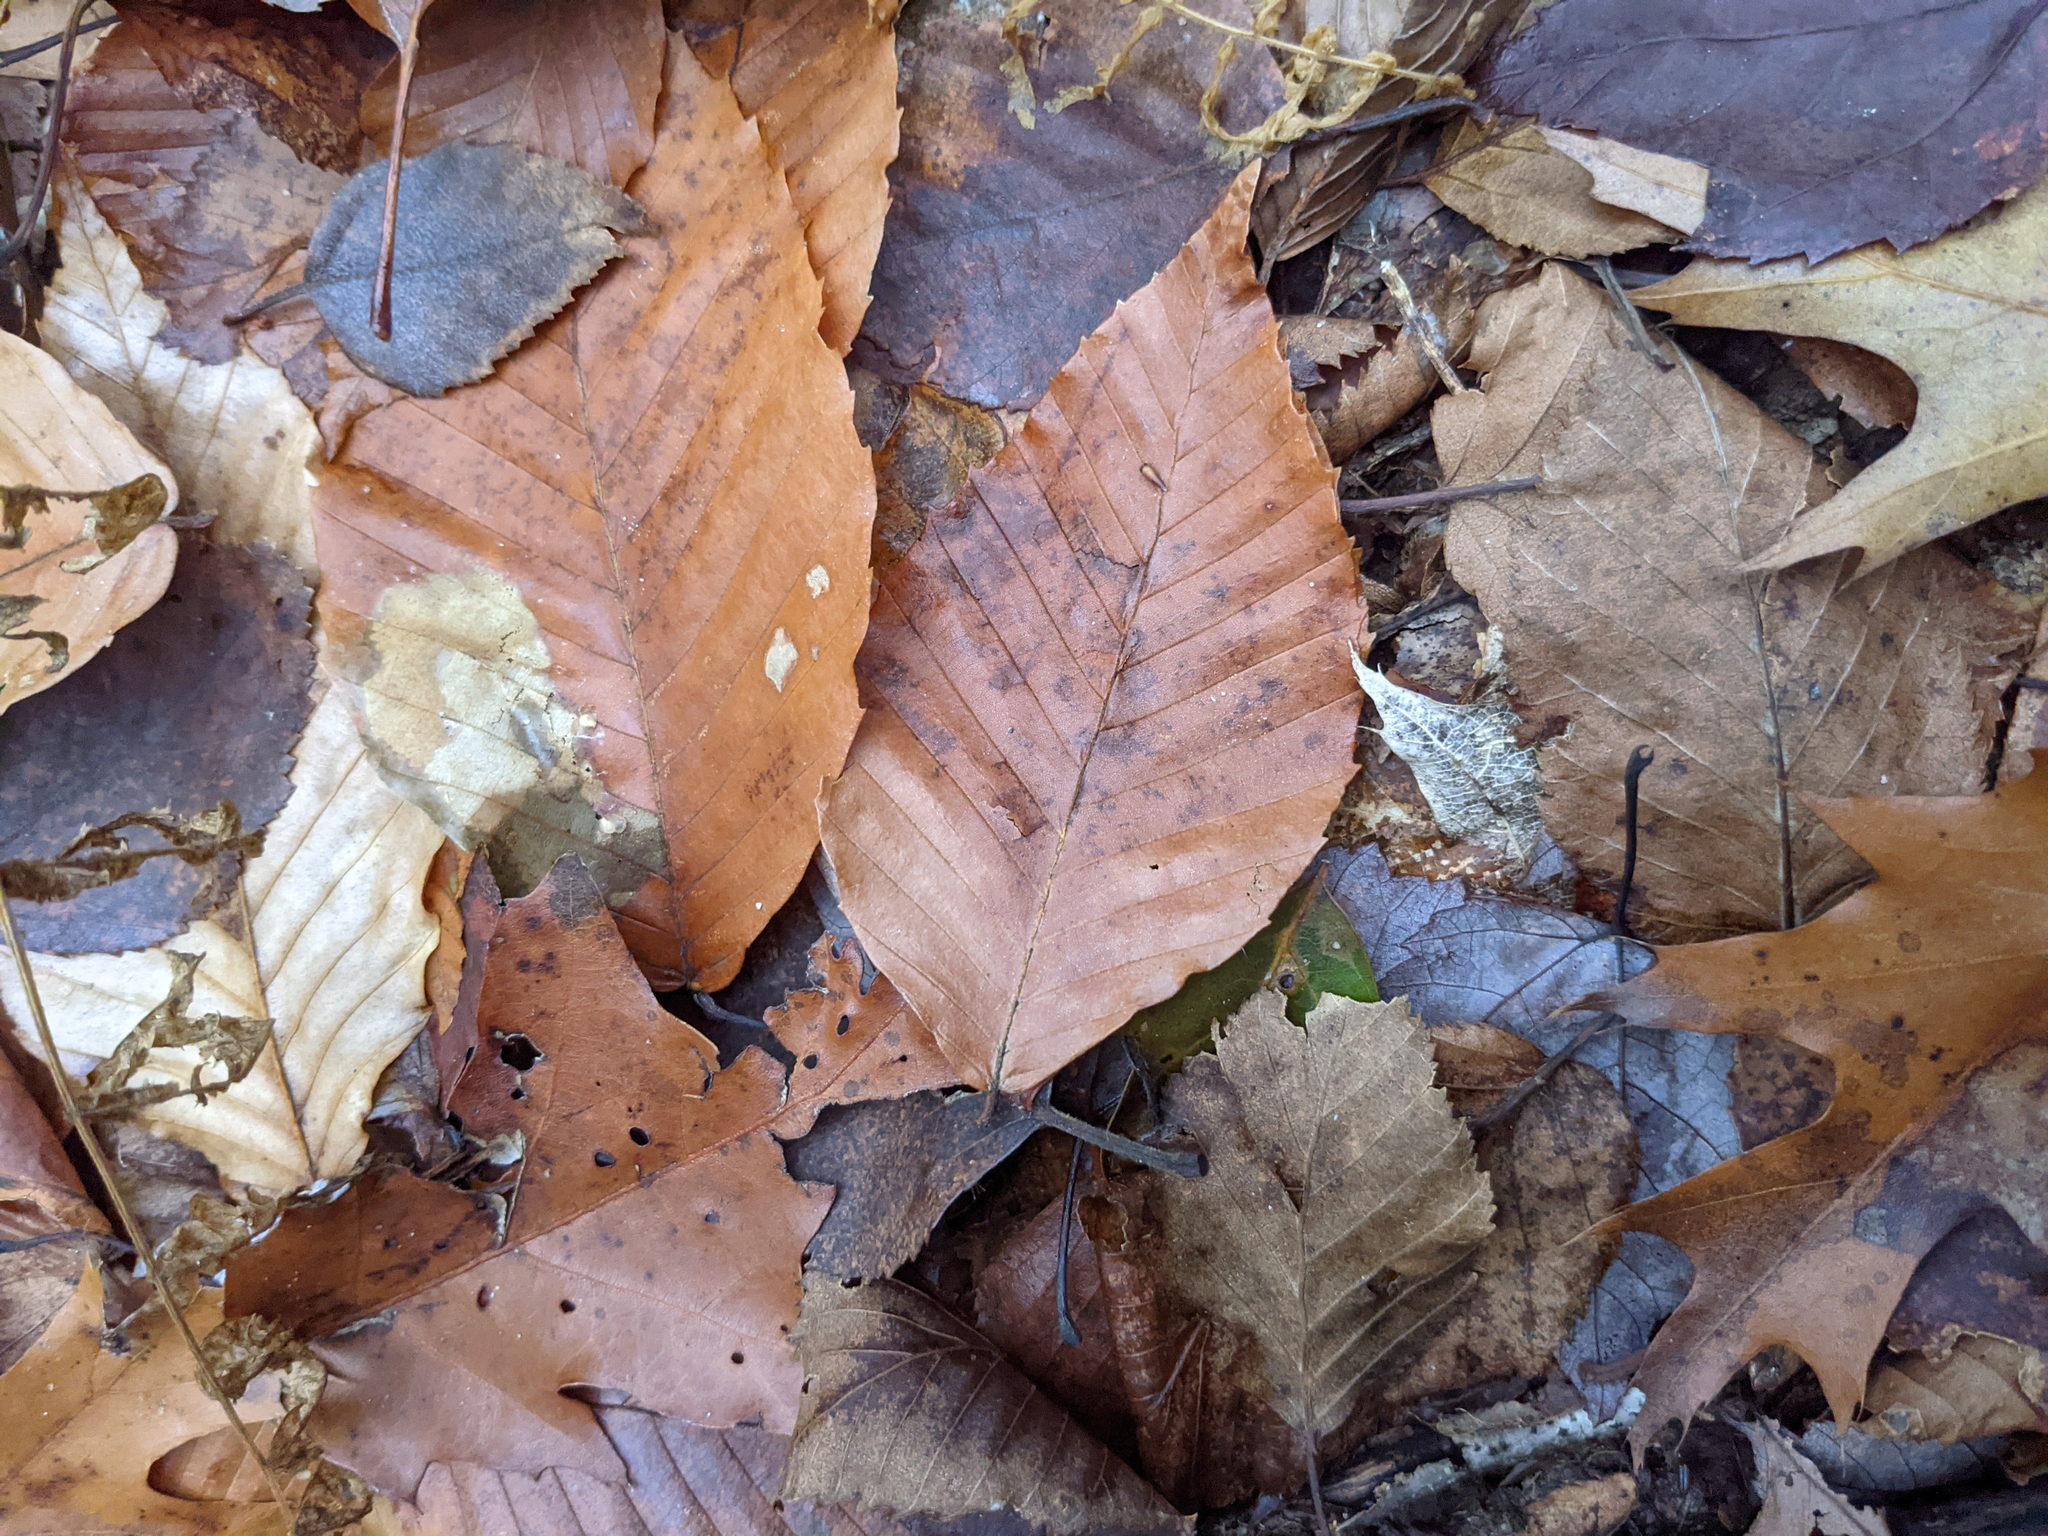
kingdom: Plantae
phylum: Tracheophyta
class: Magnoliopsida
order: Fagales
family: Fagaceae
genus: Fagus
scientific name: Fagus grandifolia
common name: American beech
